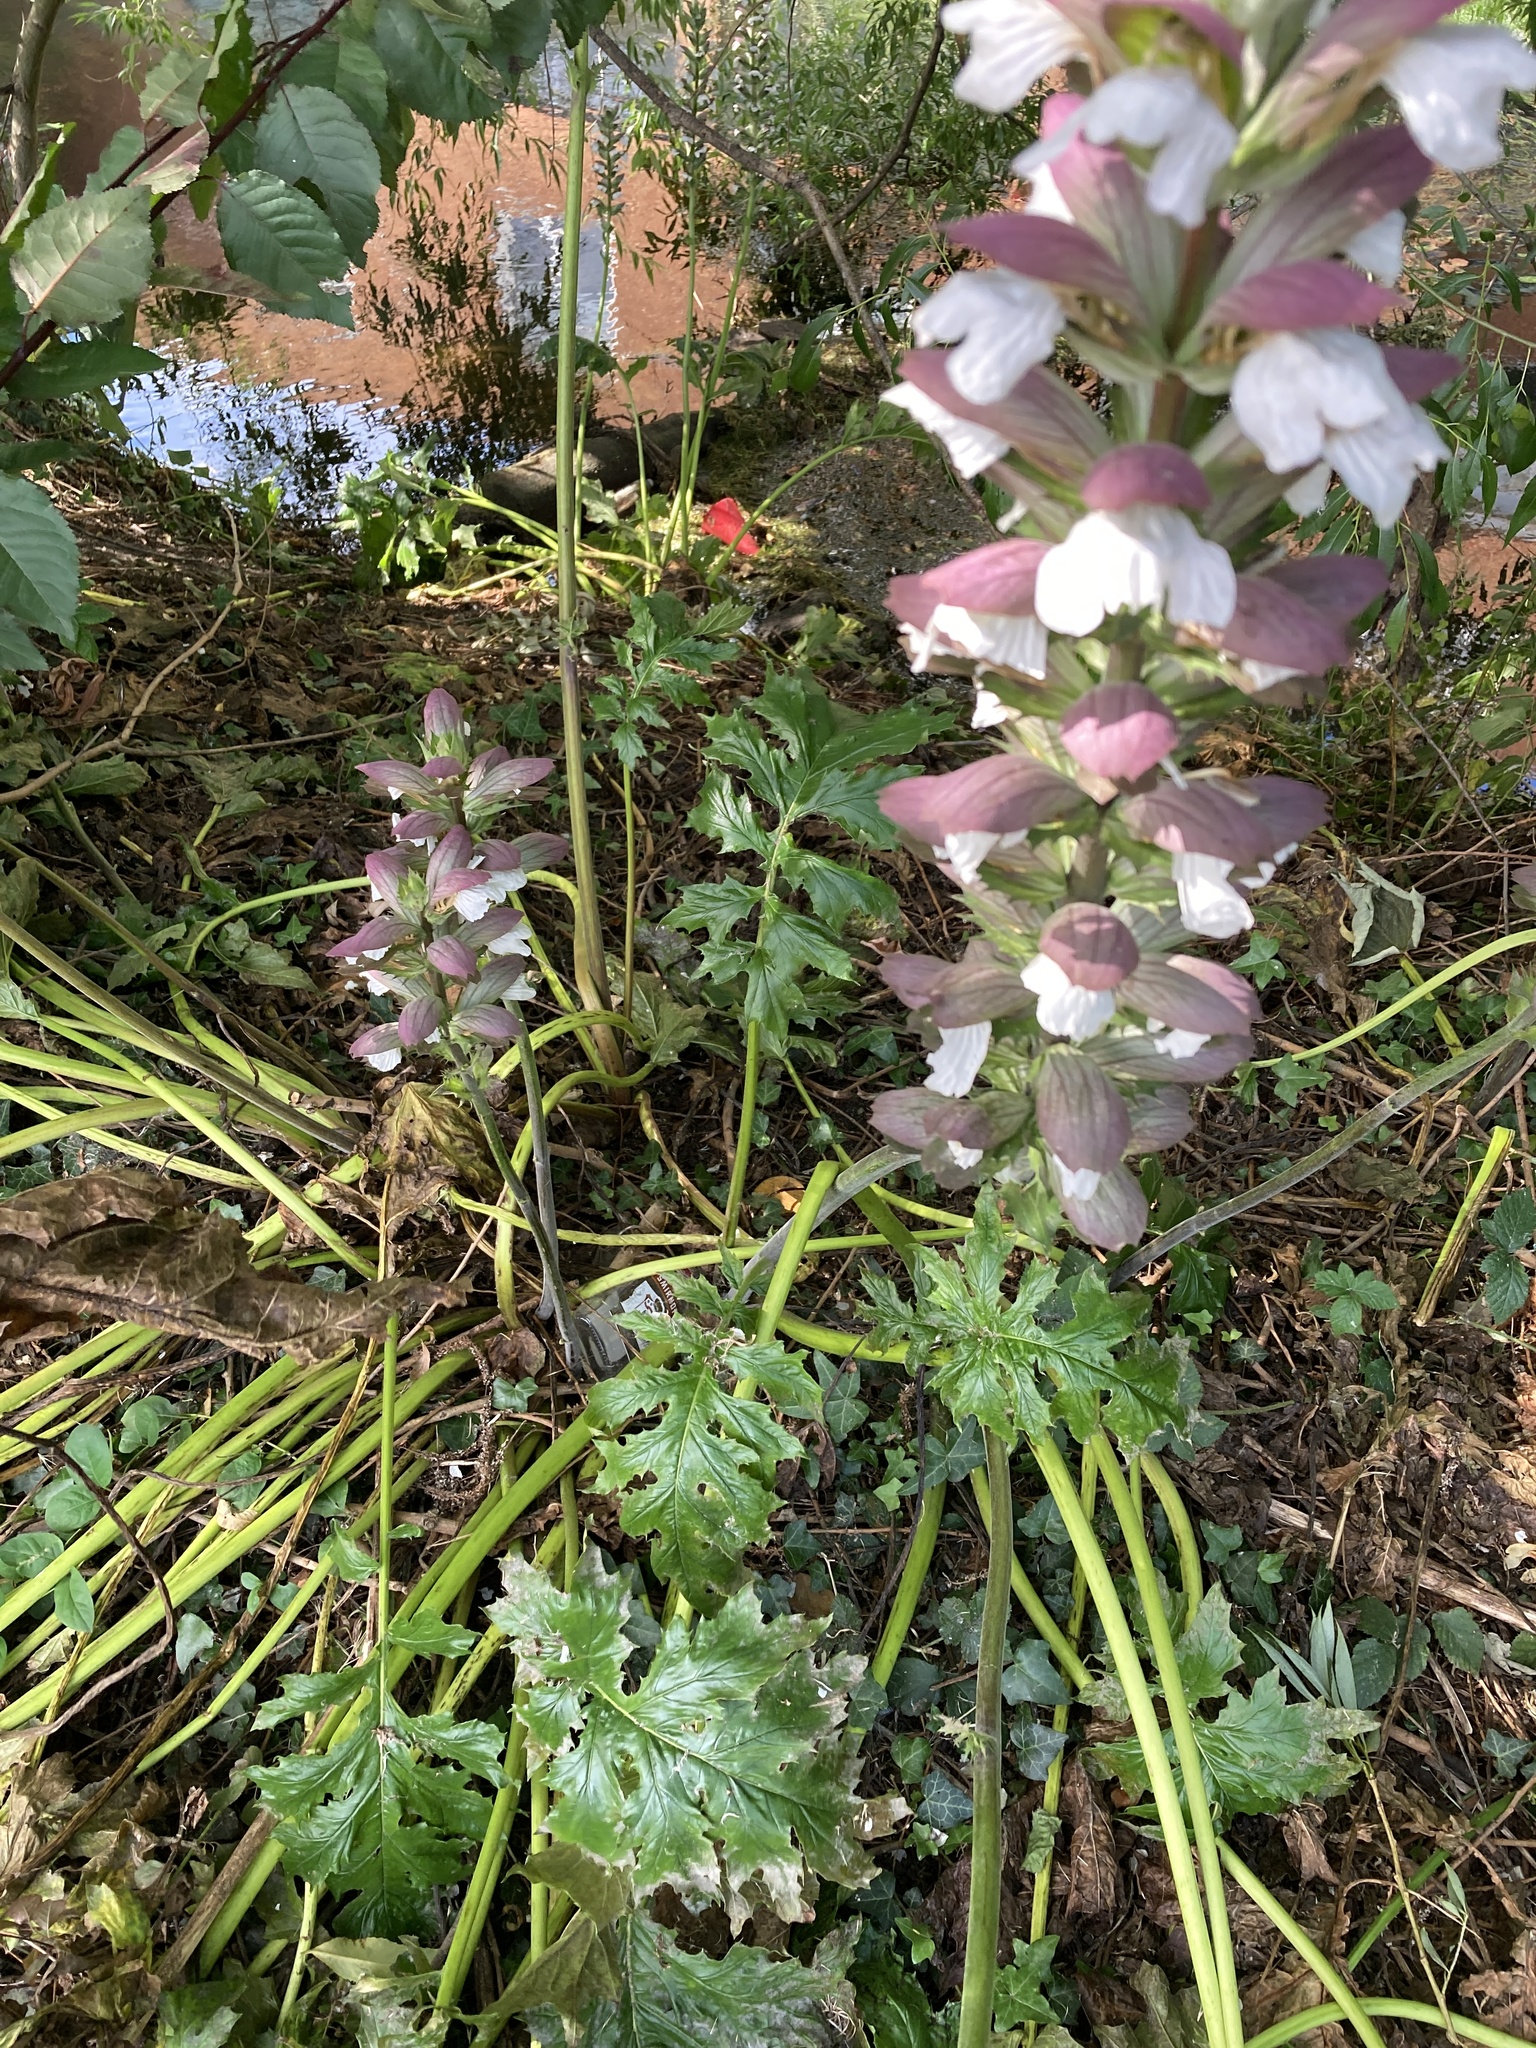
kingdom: Plantae
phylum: Tracheophyta
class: Magnoliopsida
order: Lamiales
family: Acanthaceae
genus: Acanthus
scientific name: Acanthus mollis
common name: Bear's-breech
